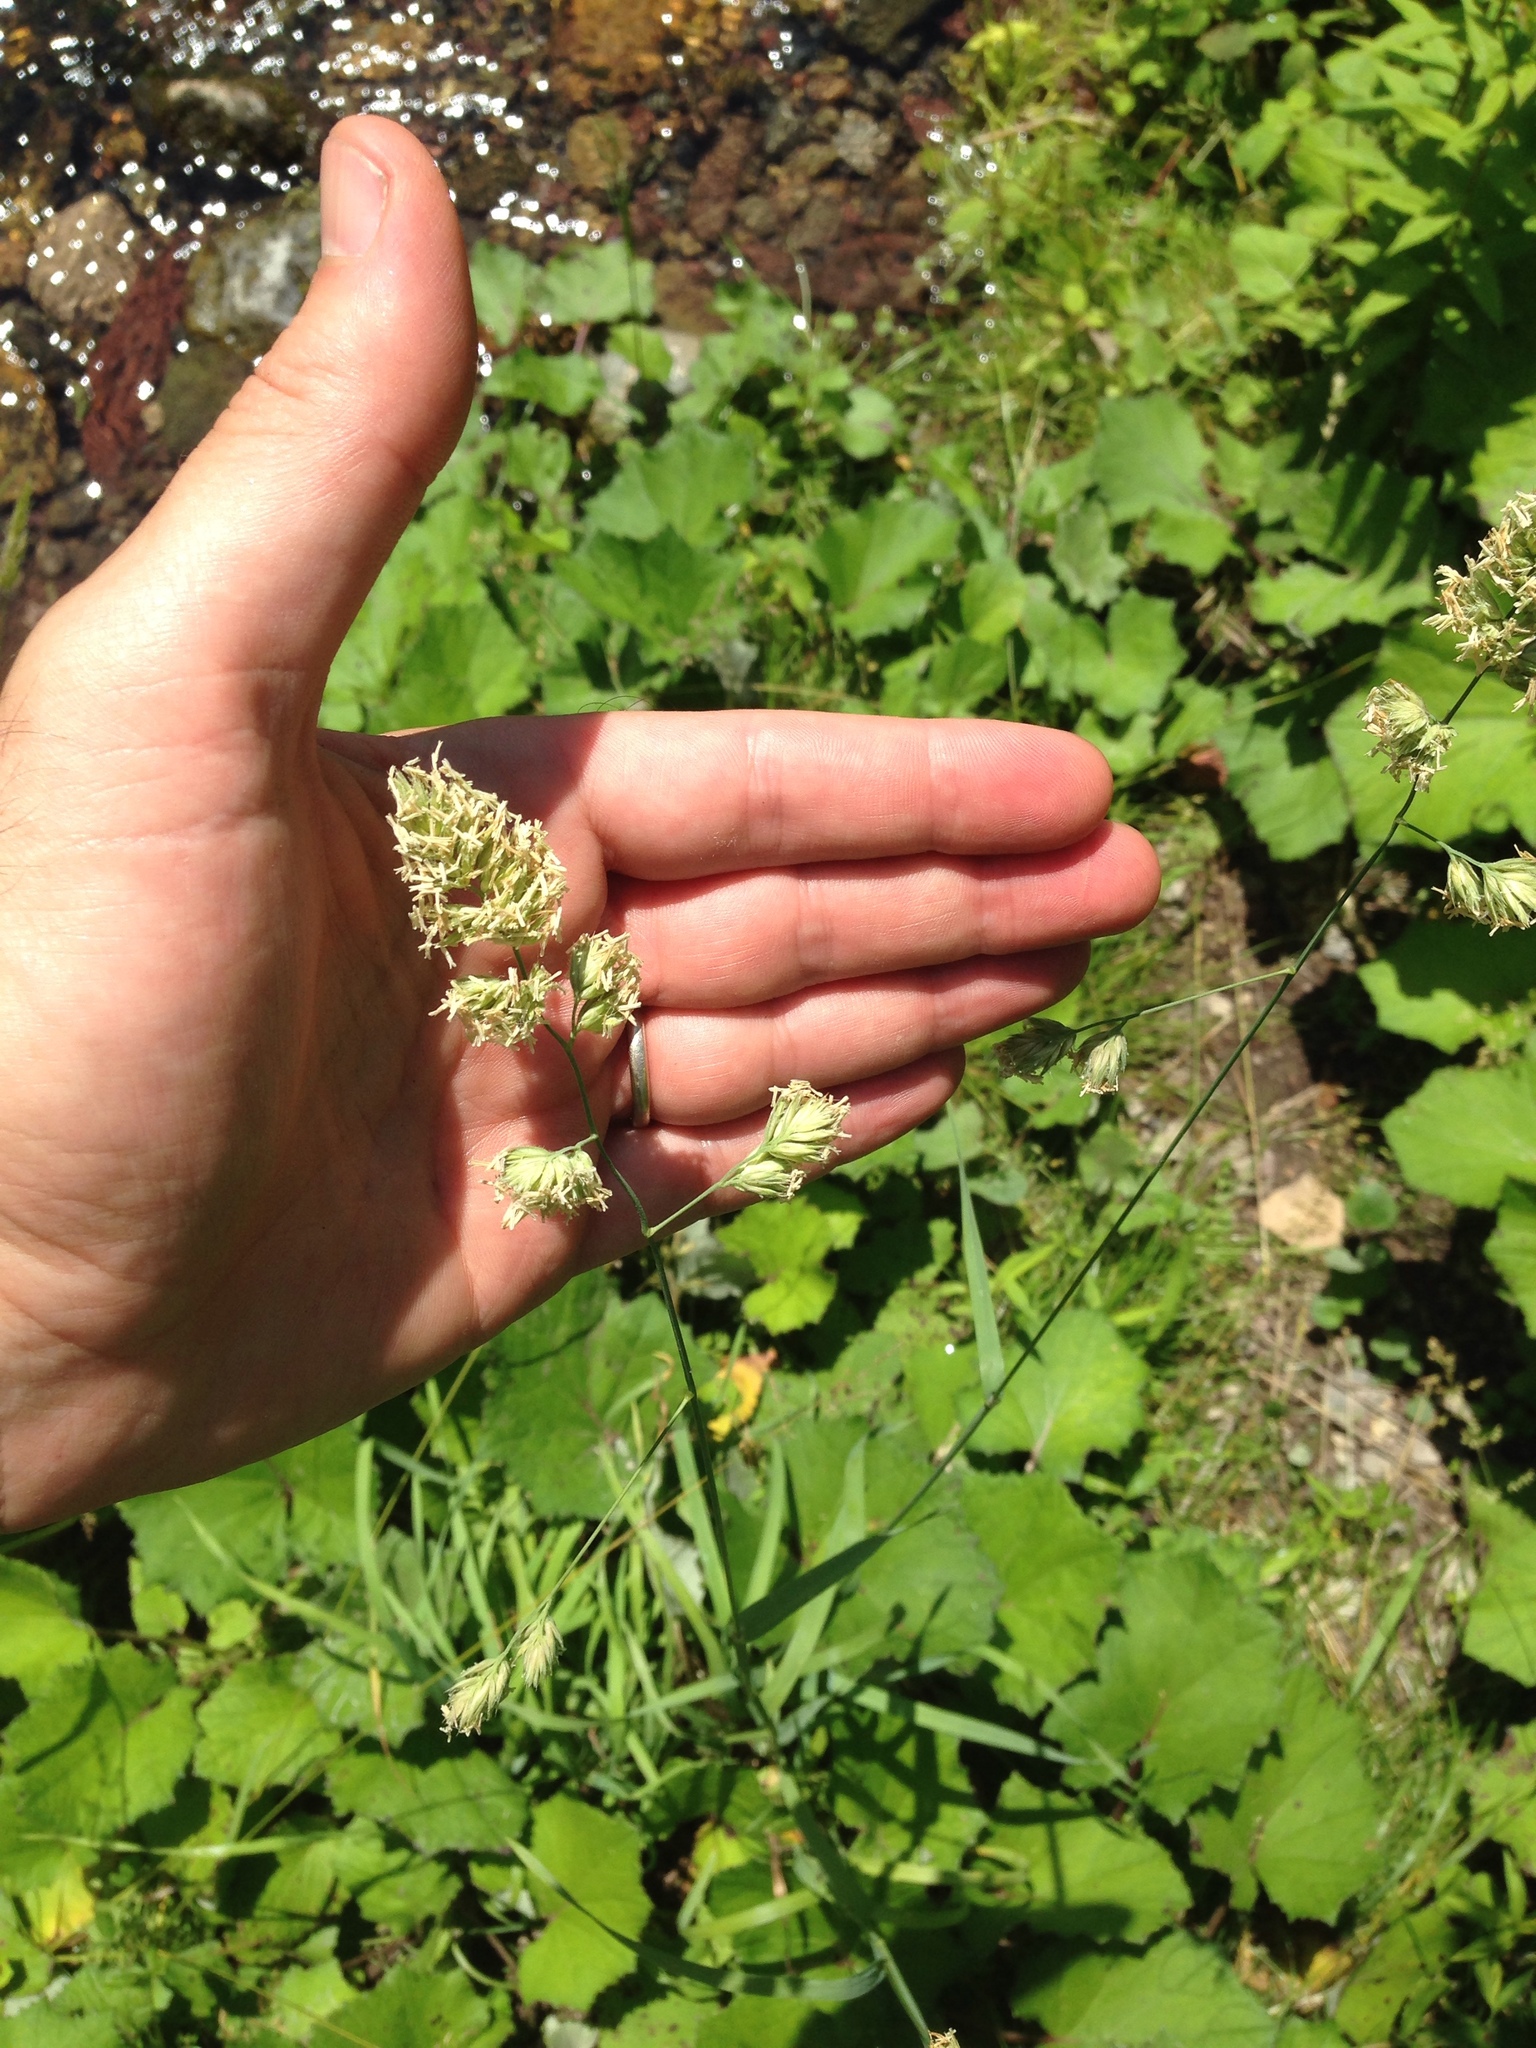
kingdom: Plantae
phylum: Tracheophyta
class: Liliopsida
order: Poales
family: Poaceae
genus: Dactylis
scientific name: Dactylis glomerata
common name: Orchardgrass
